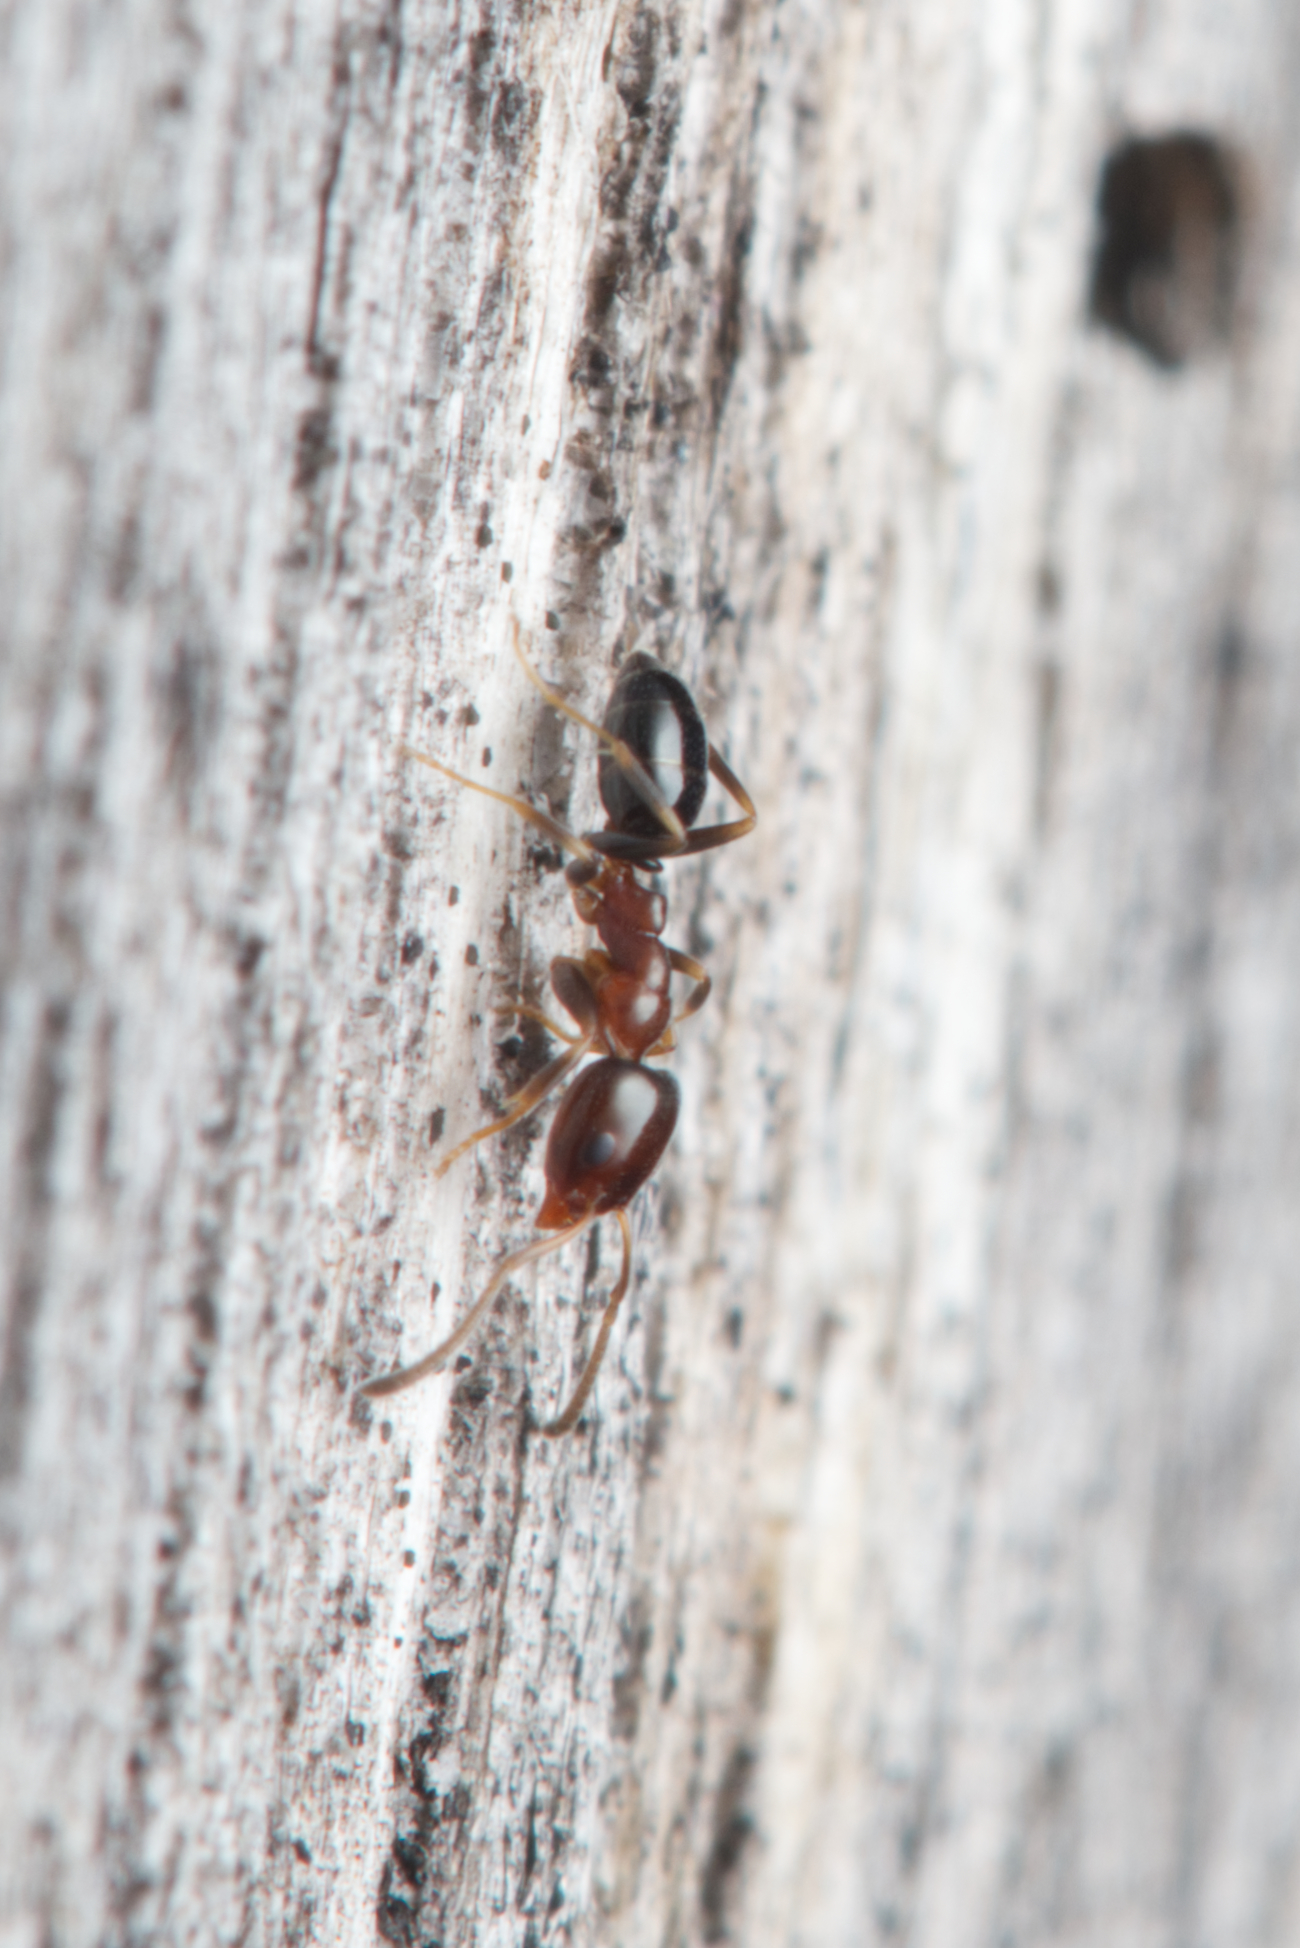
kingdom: Animalia
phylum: Arthropoda
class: Insecta
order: Hymenoptera
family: Formicidae
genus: Ochetellus
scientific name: Ochetellus glaber
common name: Ant
